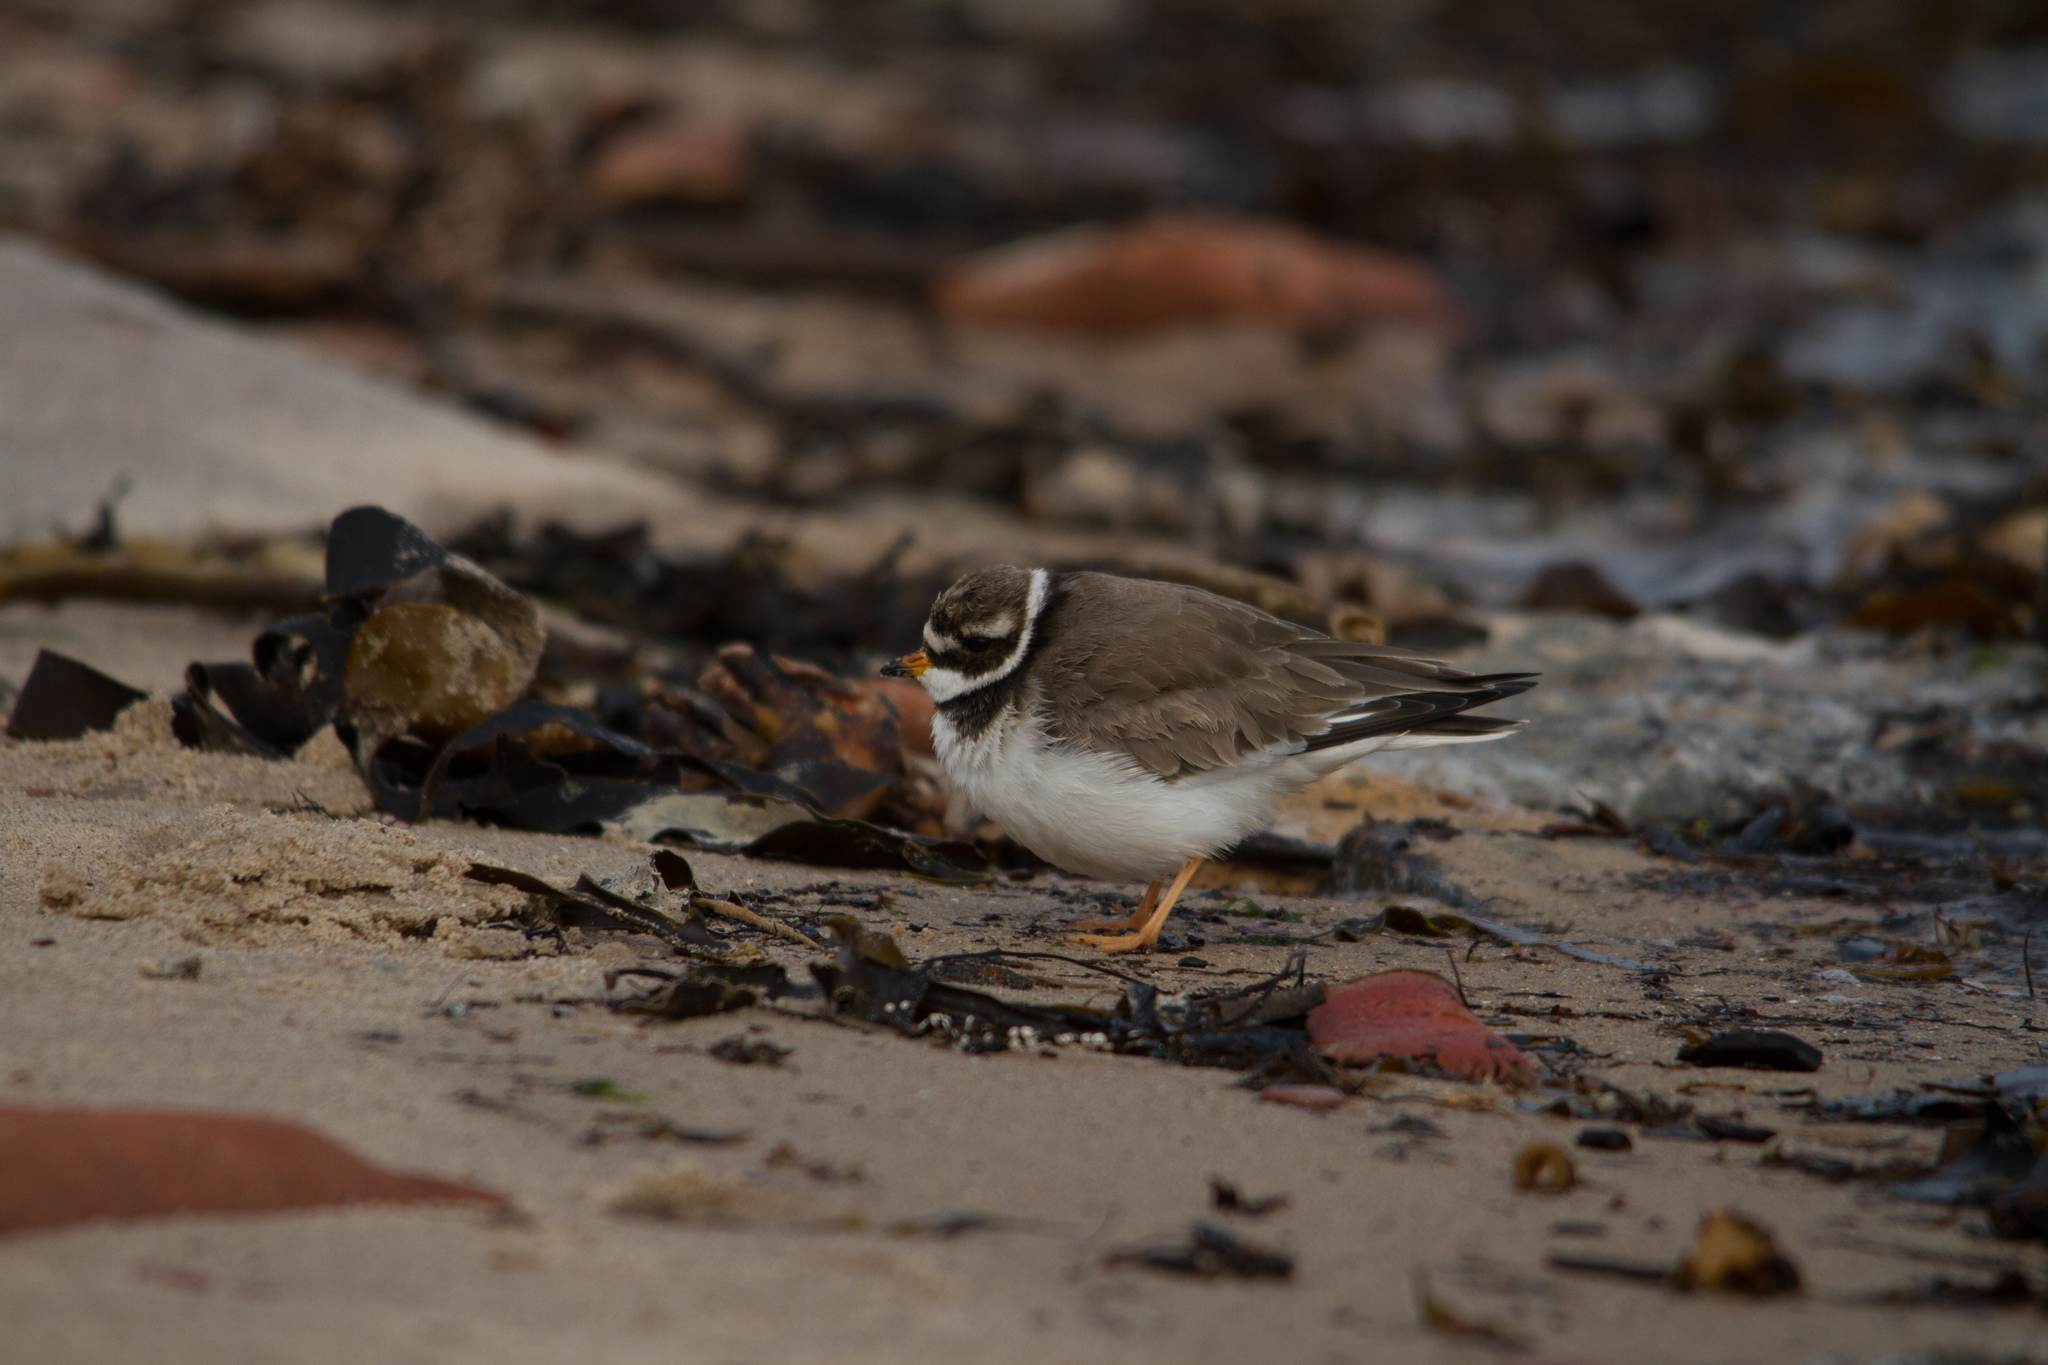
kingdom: Animalia
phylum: Chordata
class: Aves
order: Charadriiformes
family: Charadriidae
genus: Charadrius
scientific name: Charadrius hiaticula
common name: Common ringed plover
